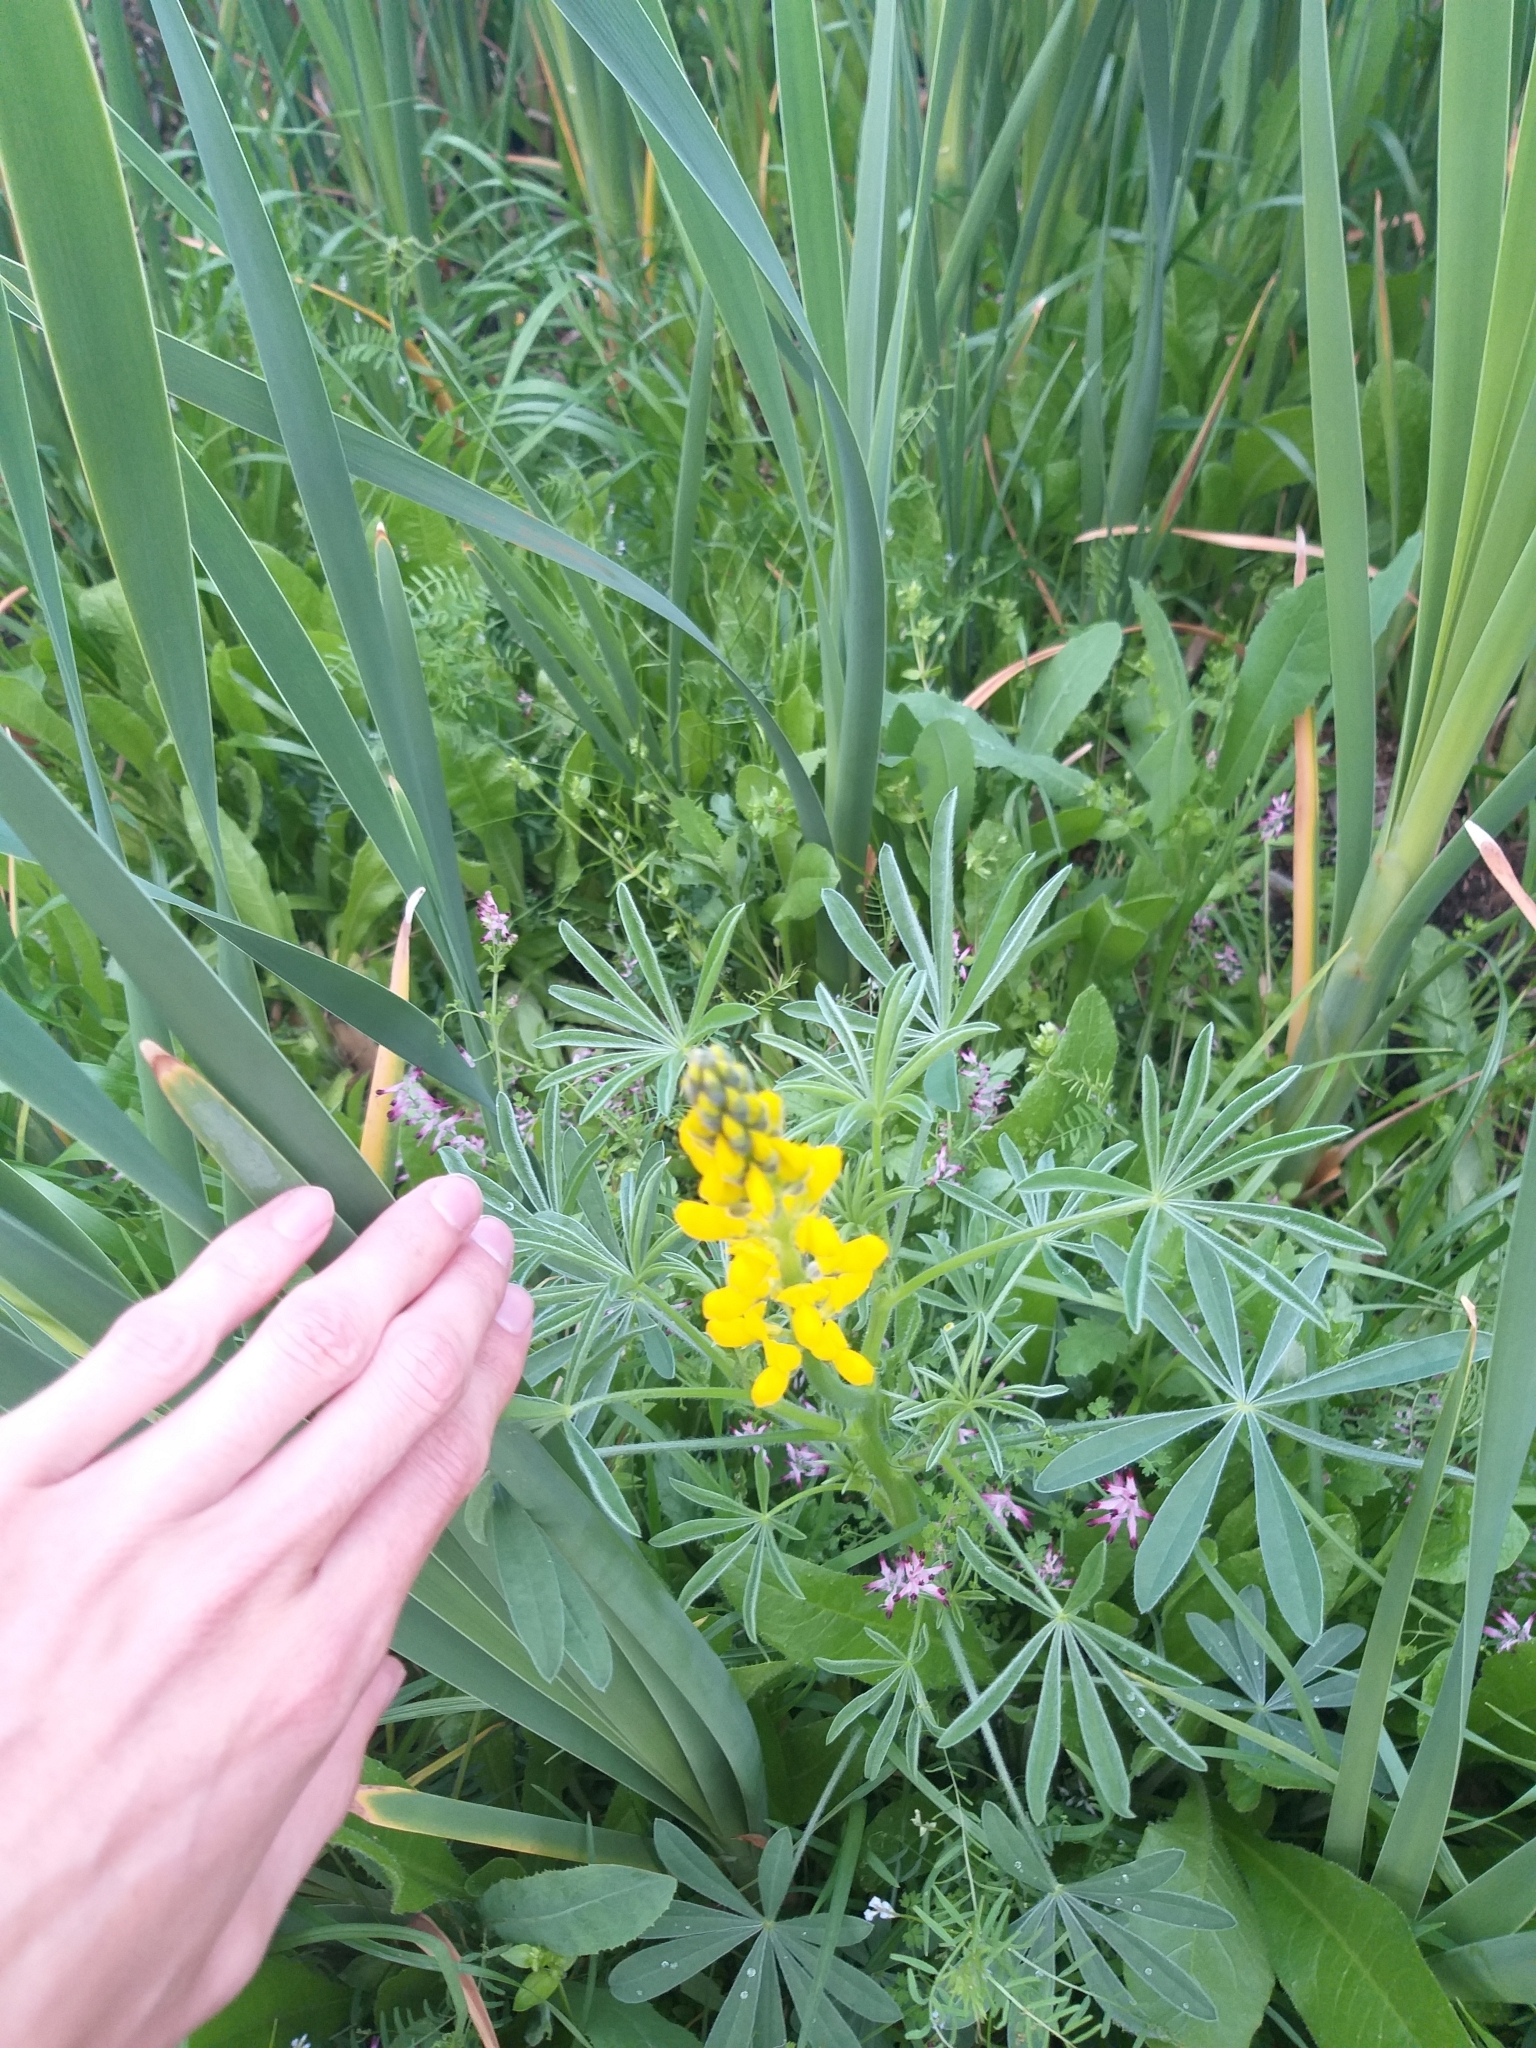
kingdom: Plantae
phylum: Tracheophyta
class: Magnoliopsida
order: Fabales
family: Fabaceae
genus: Lupinus
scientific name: Lupinus luteus
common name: European yellow lupine
